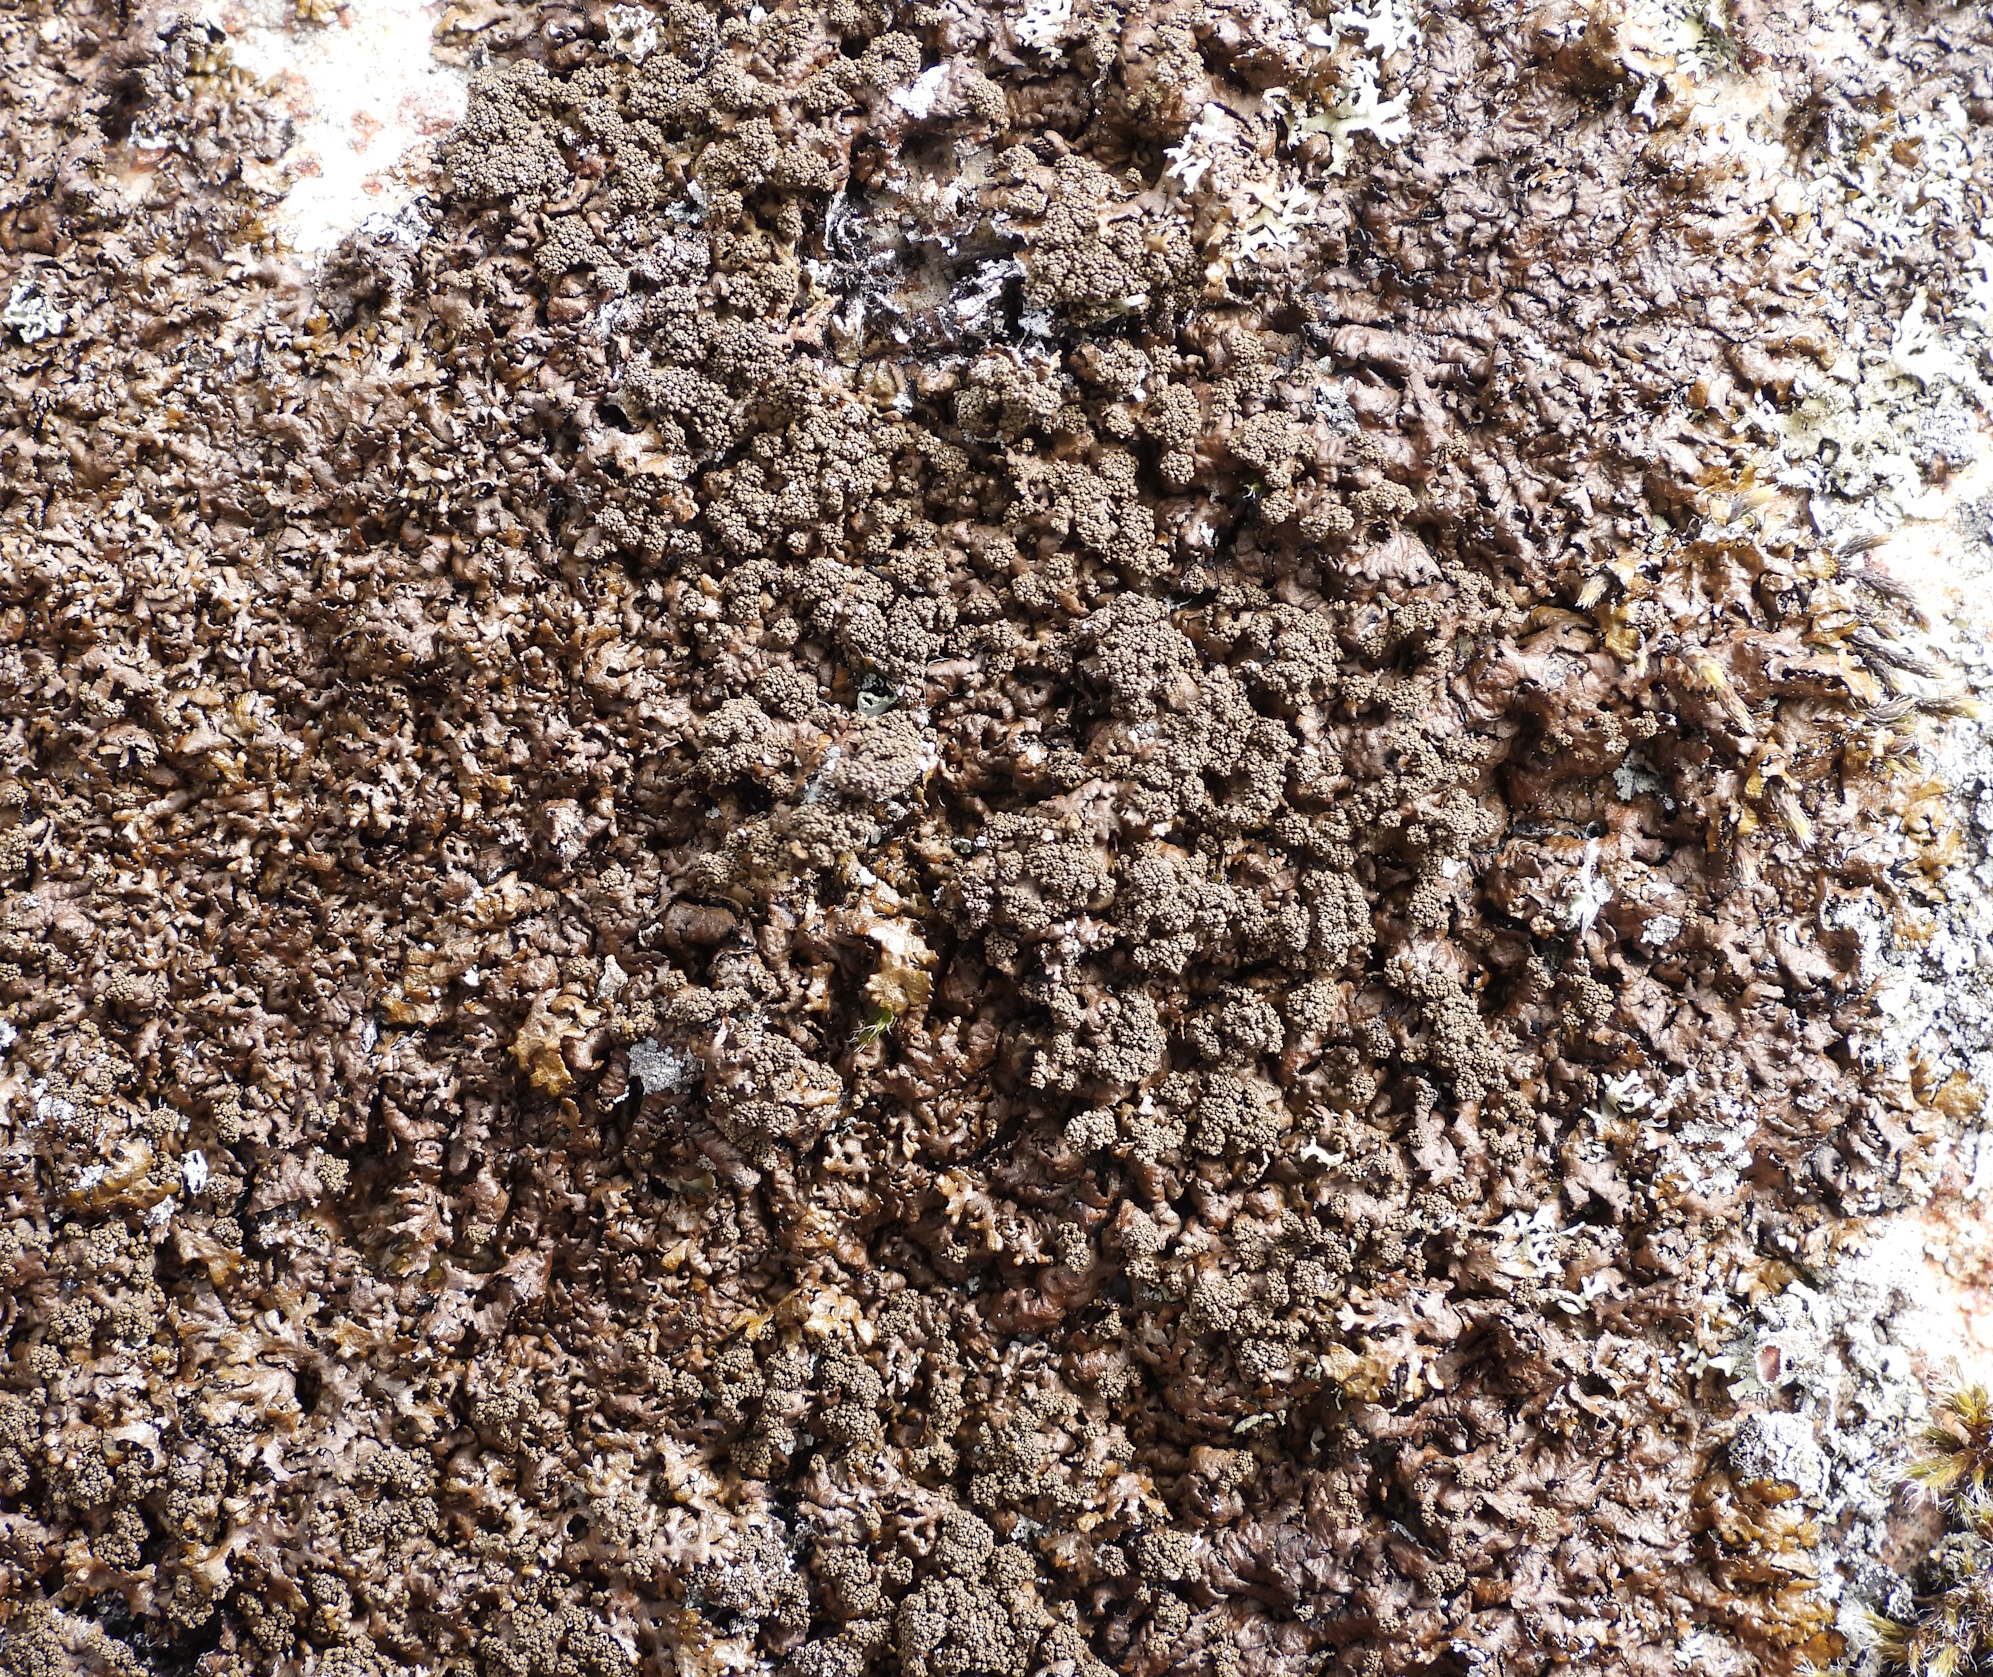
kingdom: Fungi
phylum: Ascomycota
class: Lecanoromycetes
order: Lecanorales
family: Parmeliaceae
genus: Xanthoparmelia
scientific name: Xanthoparmelia loxodes
